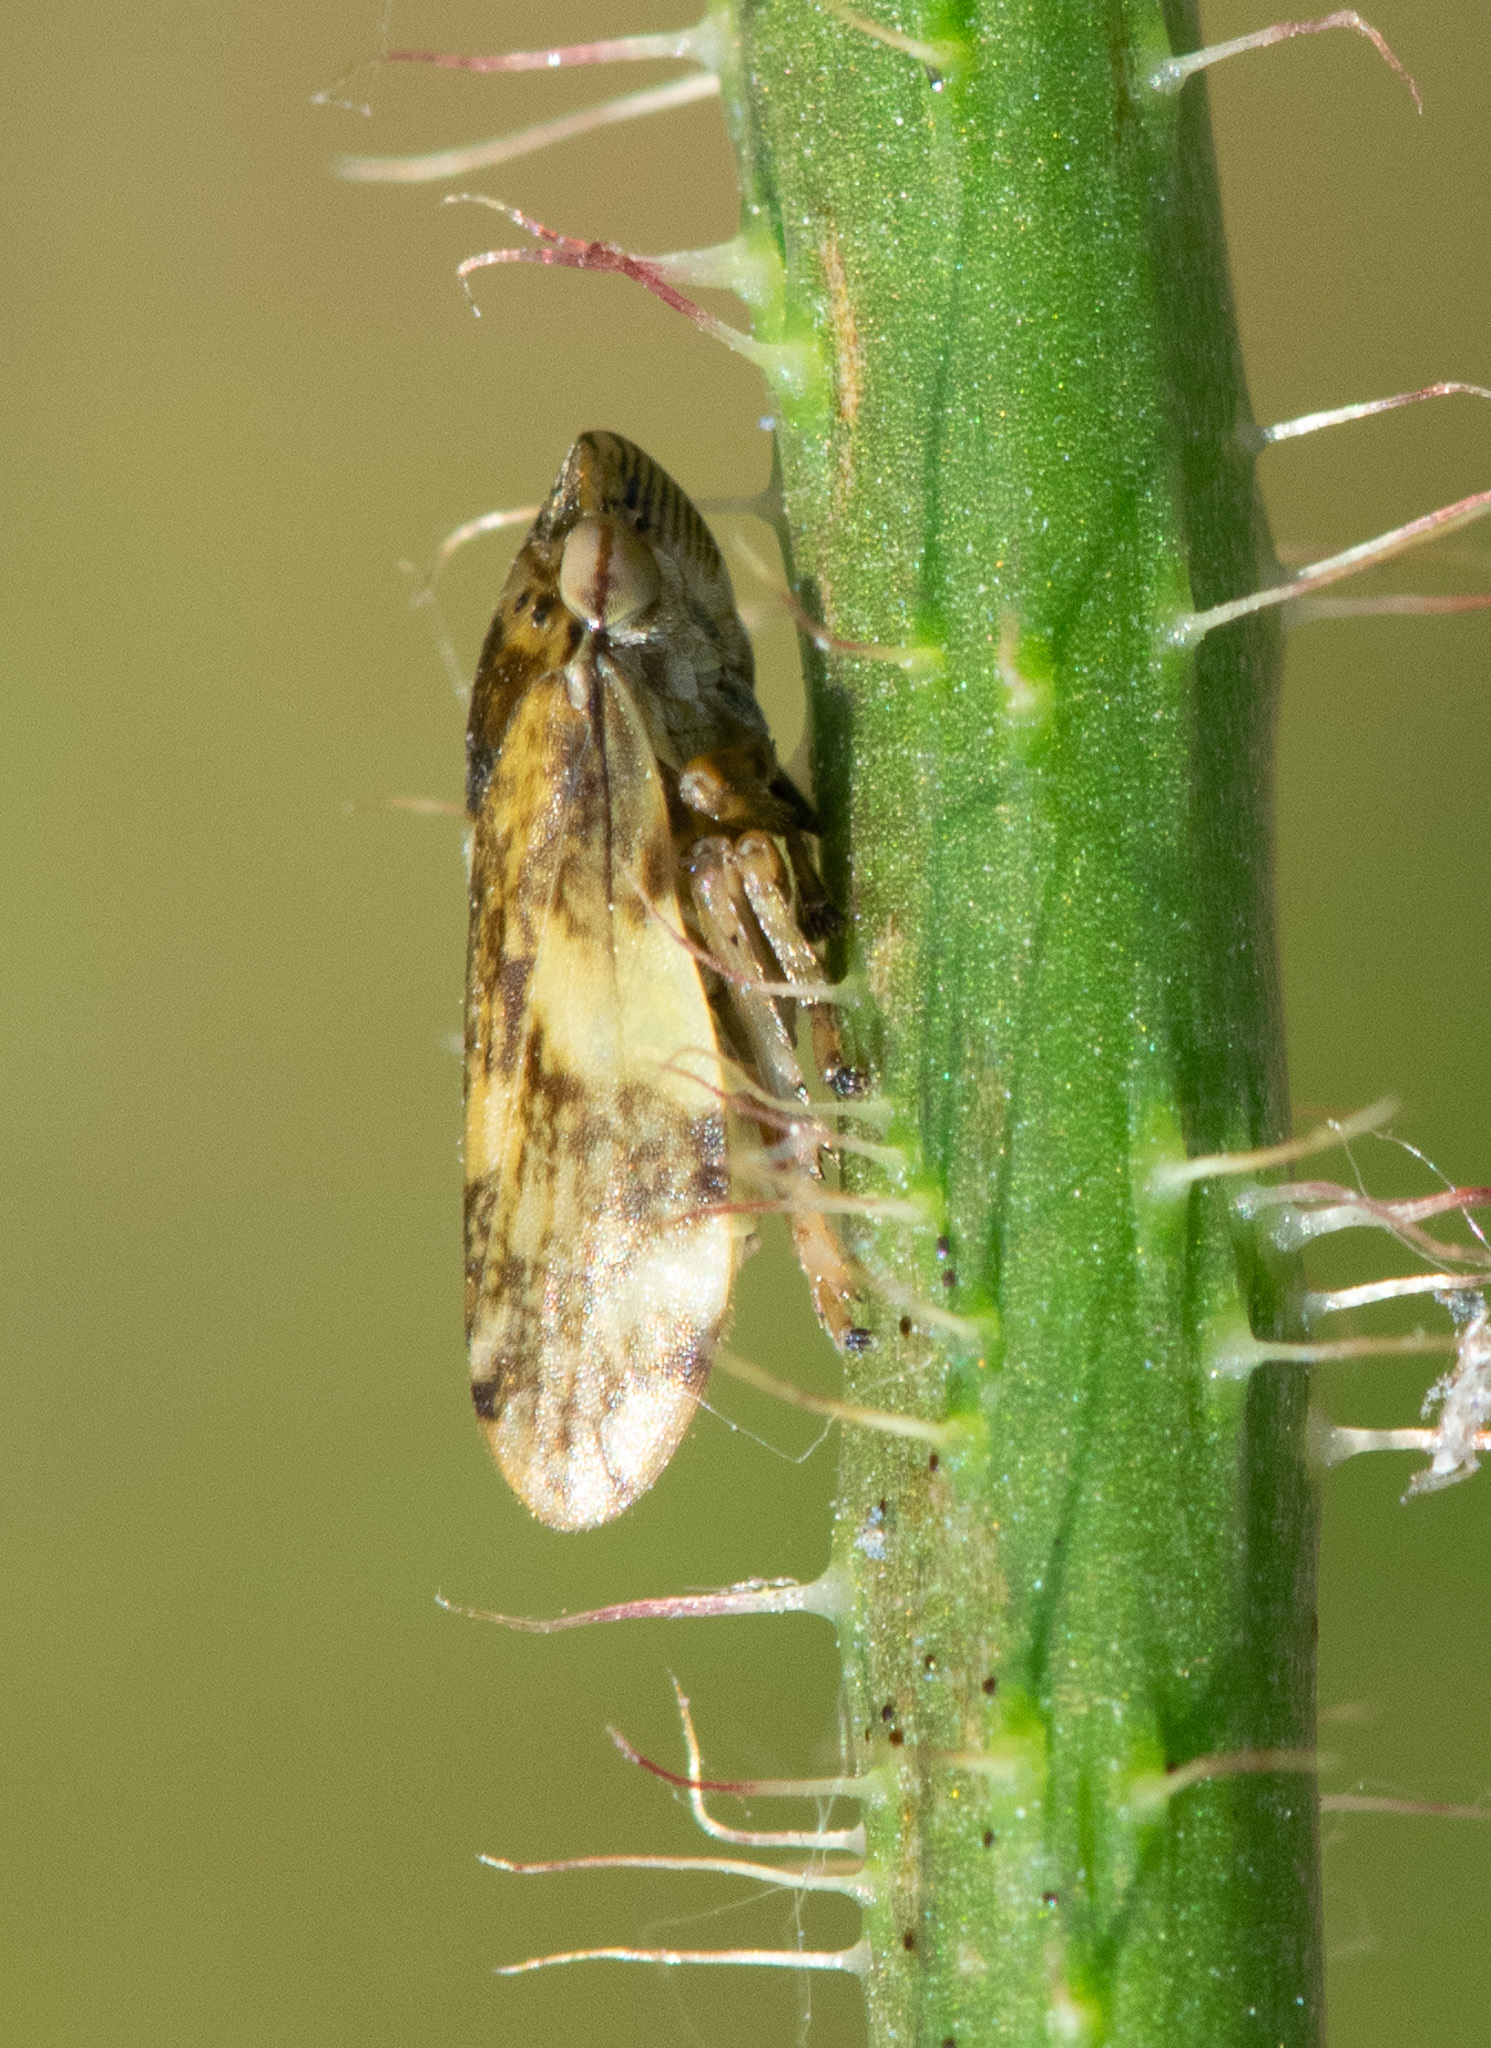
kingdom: Animalia
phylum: Arthropoda
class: Insecta
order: Hemiptera
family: Aphrophoridae
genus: Philaenus
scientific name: Philaenus spumarius
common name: Meadow spittlebug
